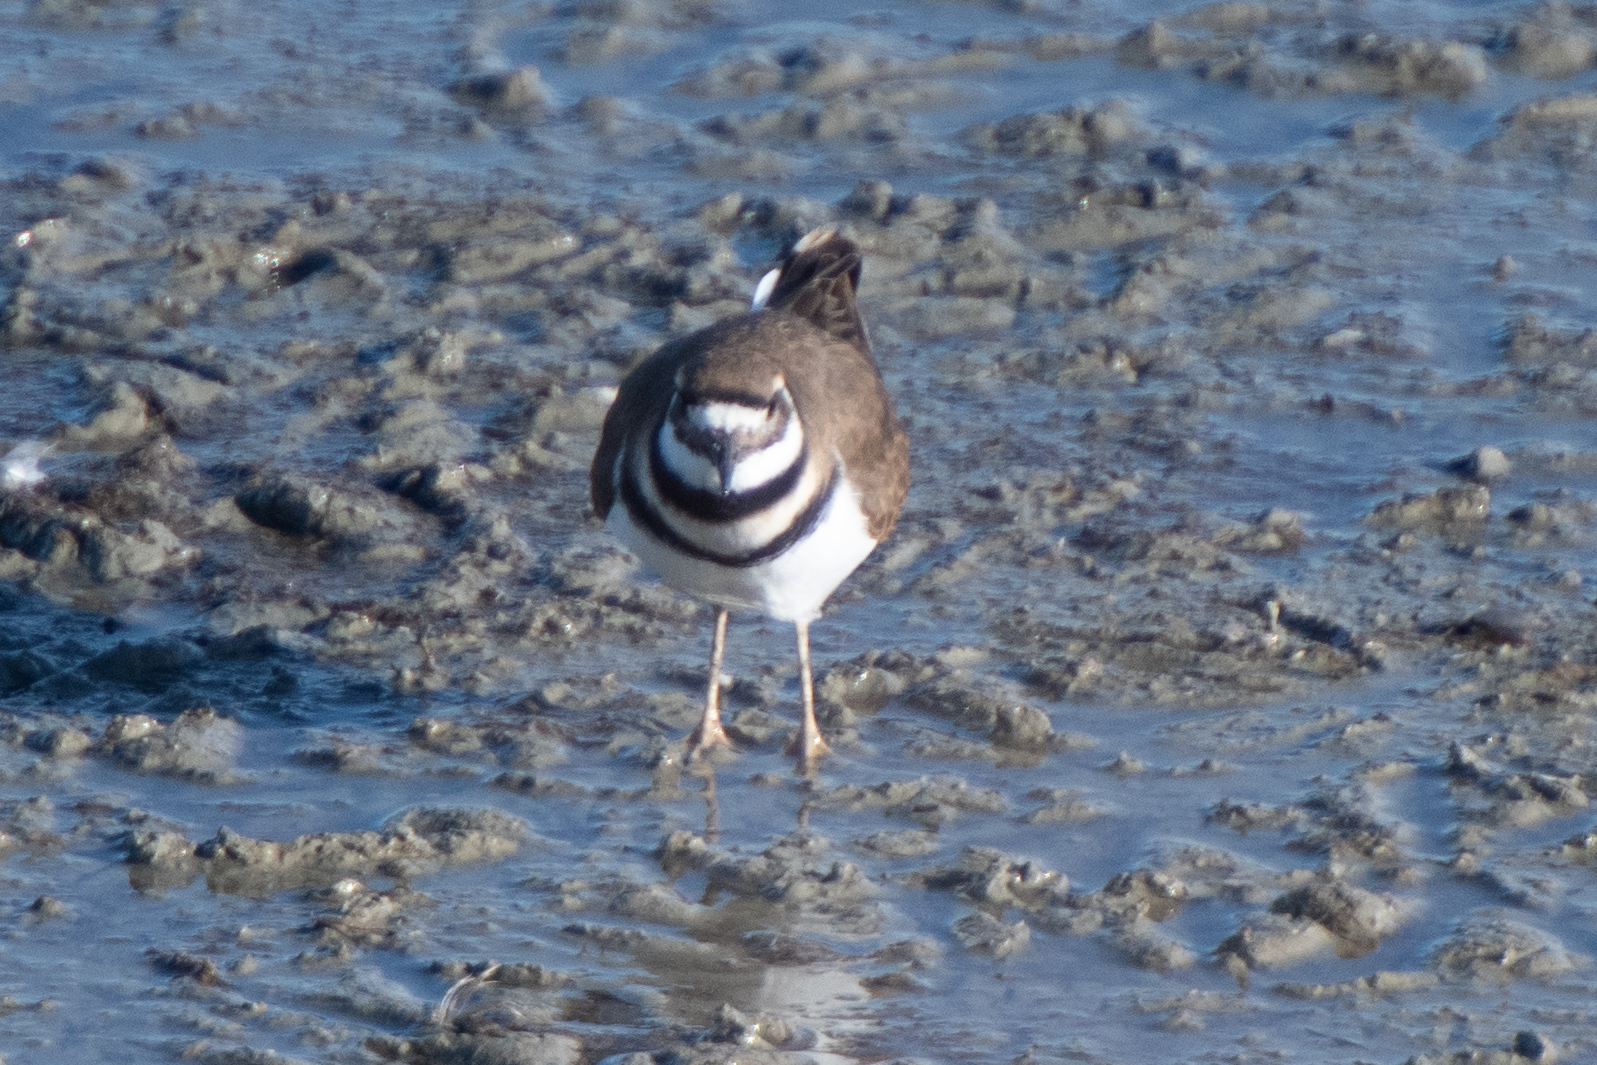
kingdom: Animalia
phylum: Chordata
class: Aves
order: Charadriiformes
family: Charadriidae
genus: Charadrius
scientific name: Charadrius vociferus
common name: Killdeer
